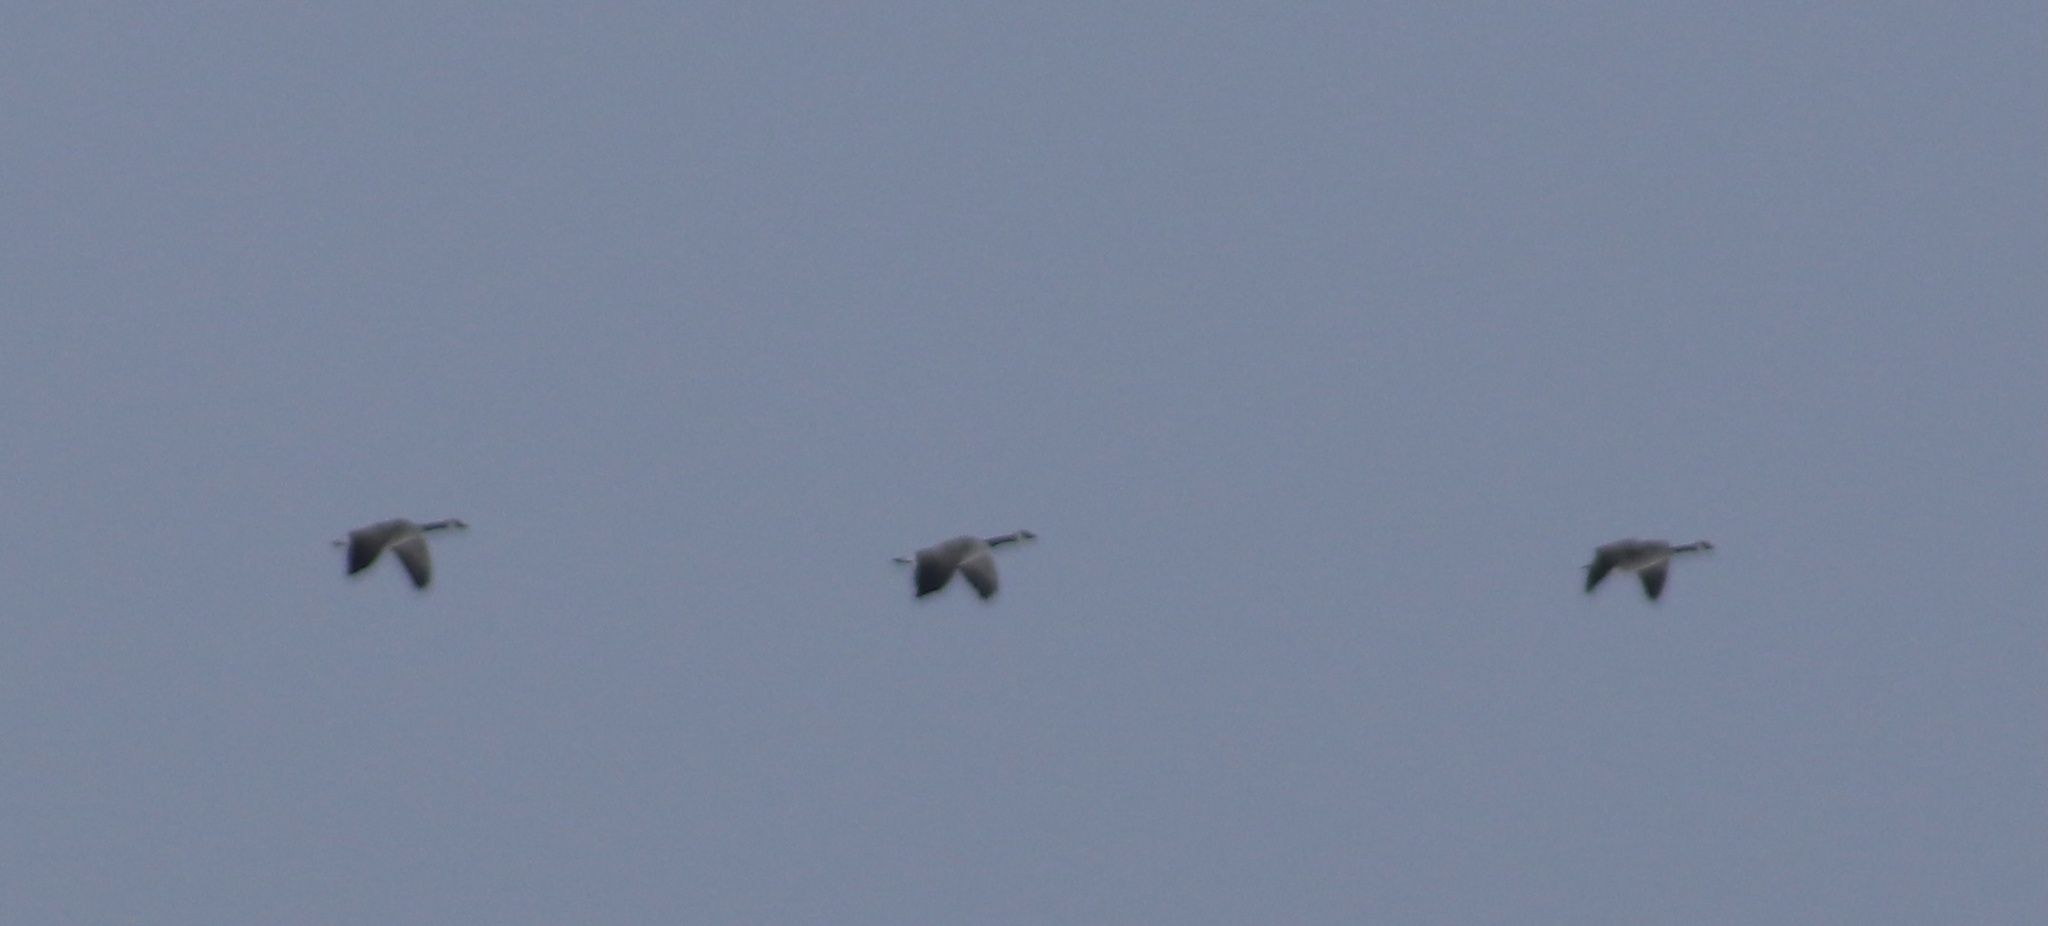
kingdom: Animalia
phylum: Chordata
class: Aves
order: Anseriformes
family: Anatidae
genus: Branta
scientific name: Branta canadensis
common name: Canada goose
